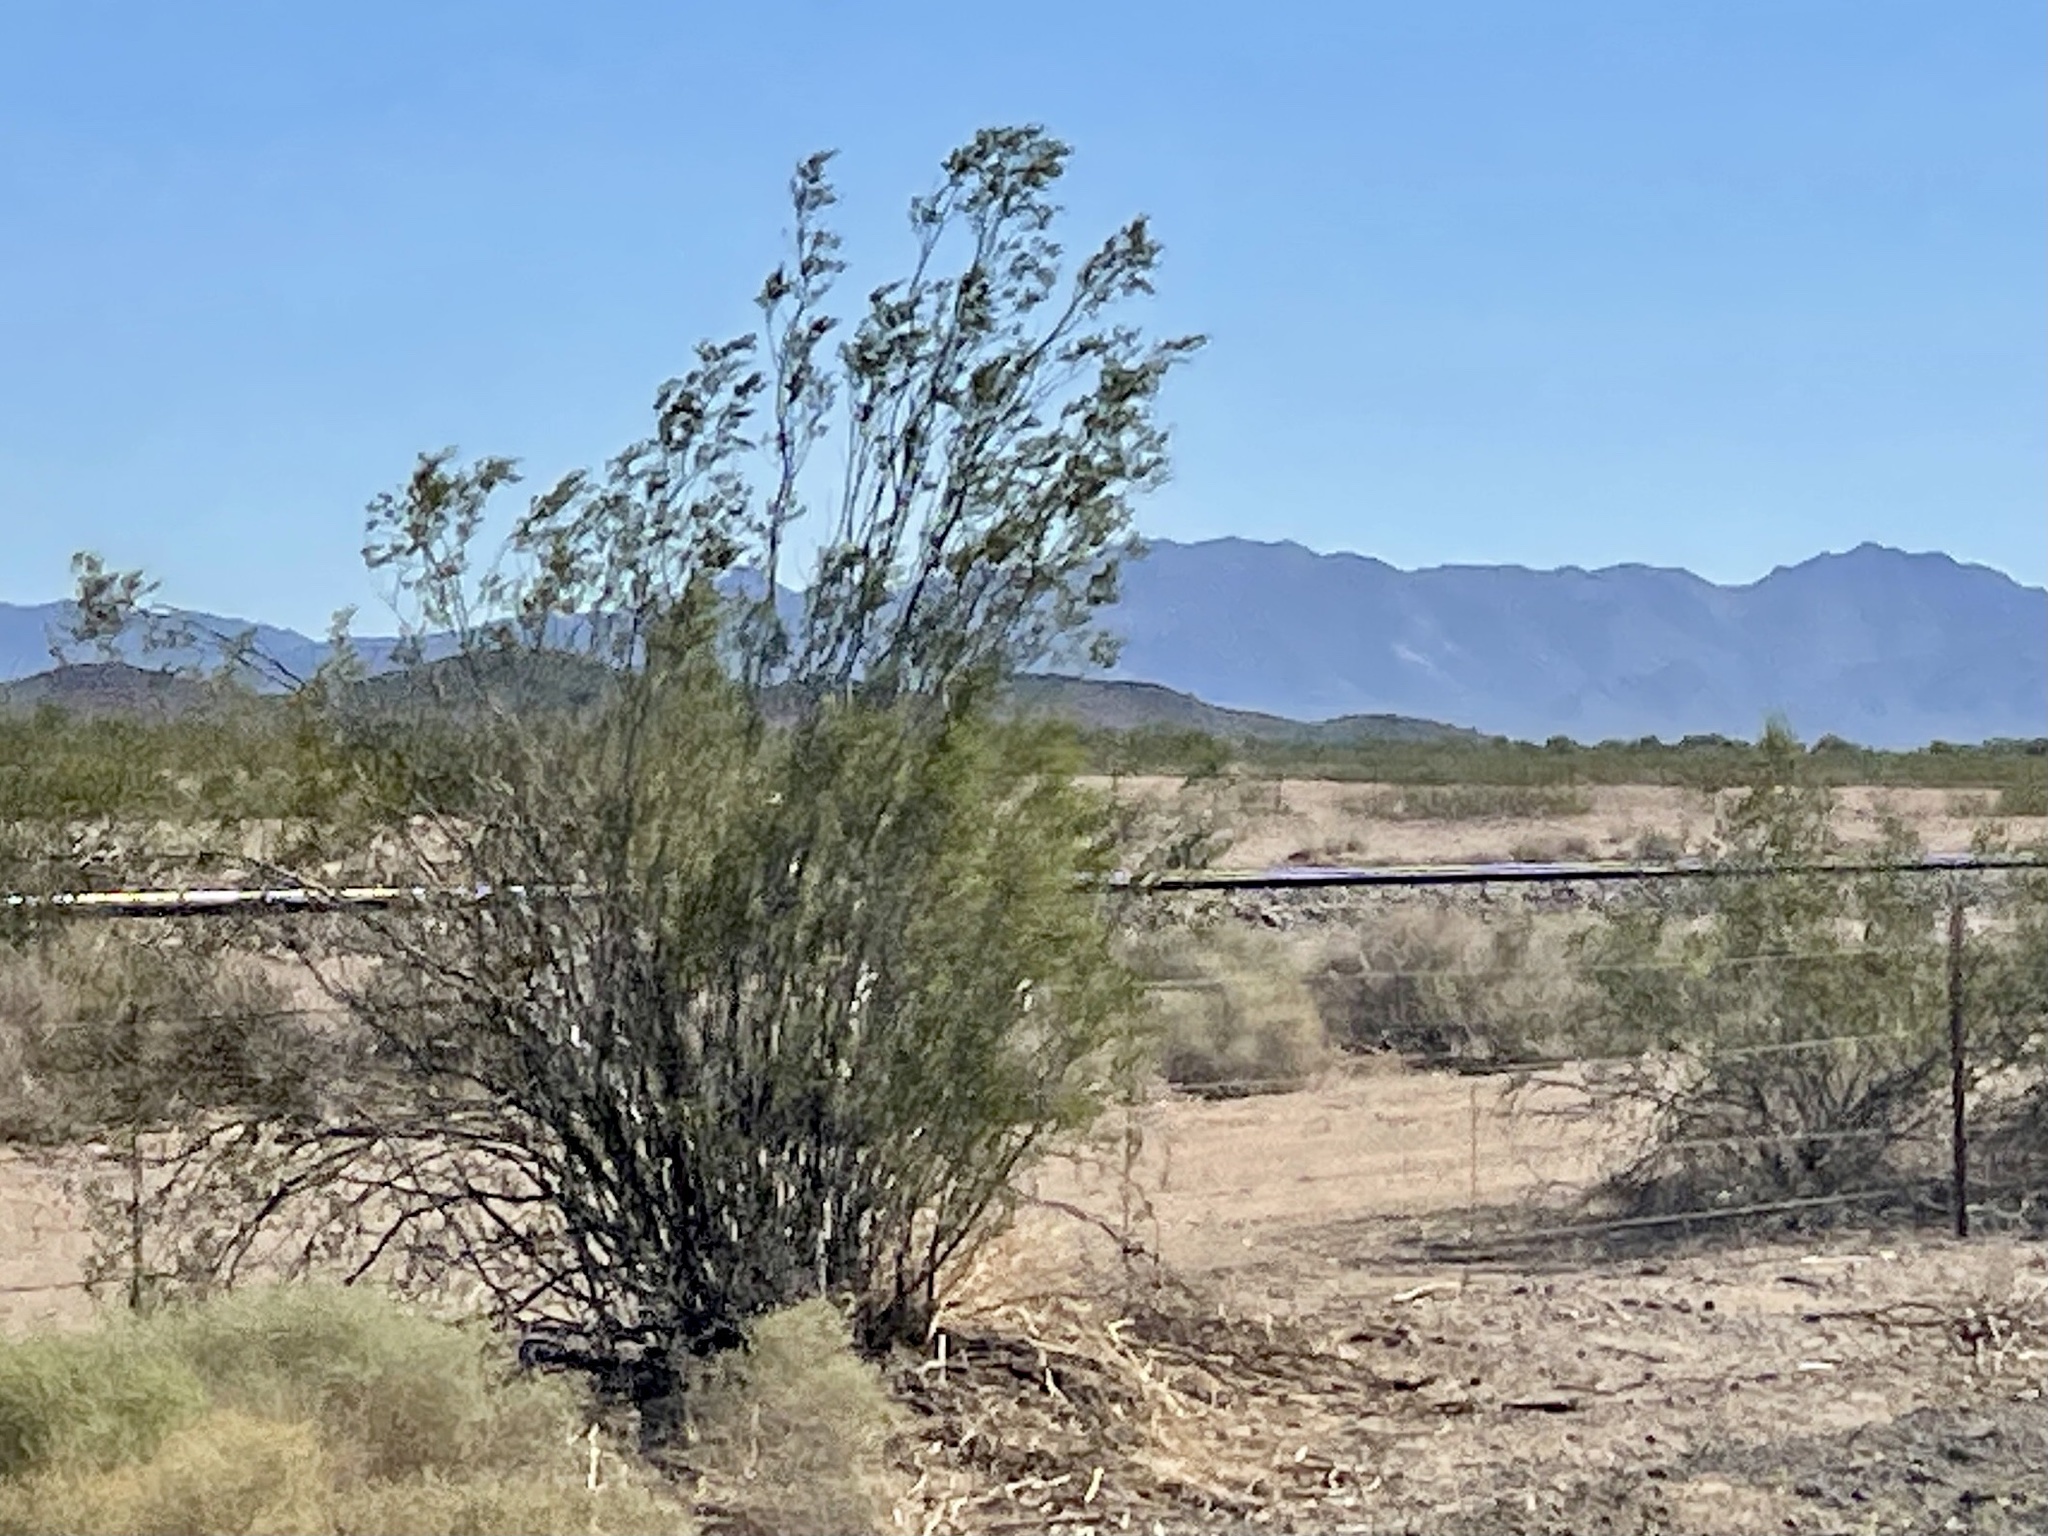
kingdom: Plantae
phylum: Tracheophyta
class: Magnoliopsida
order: Zygophyllales
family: Zygophyllaceae
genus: Larrea
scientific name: Larrea tridentata
